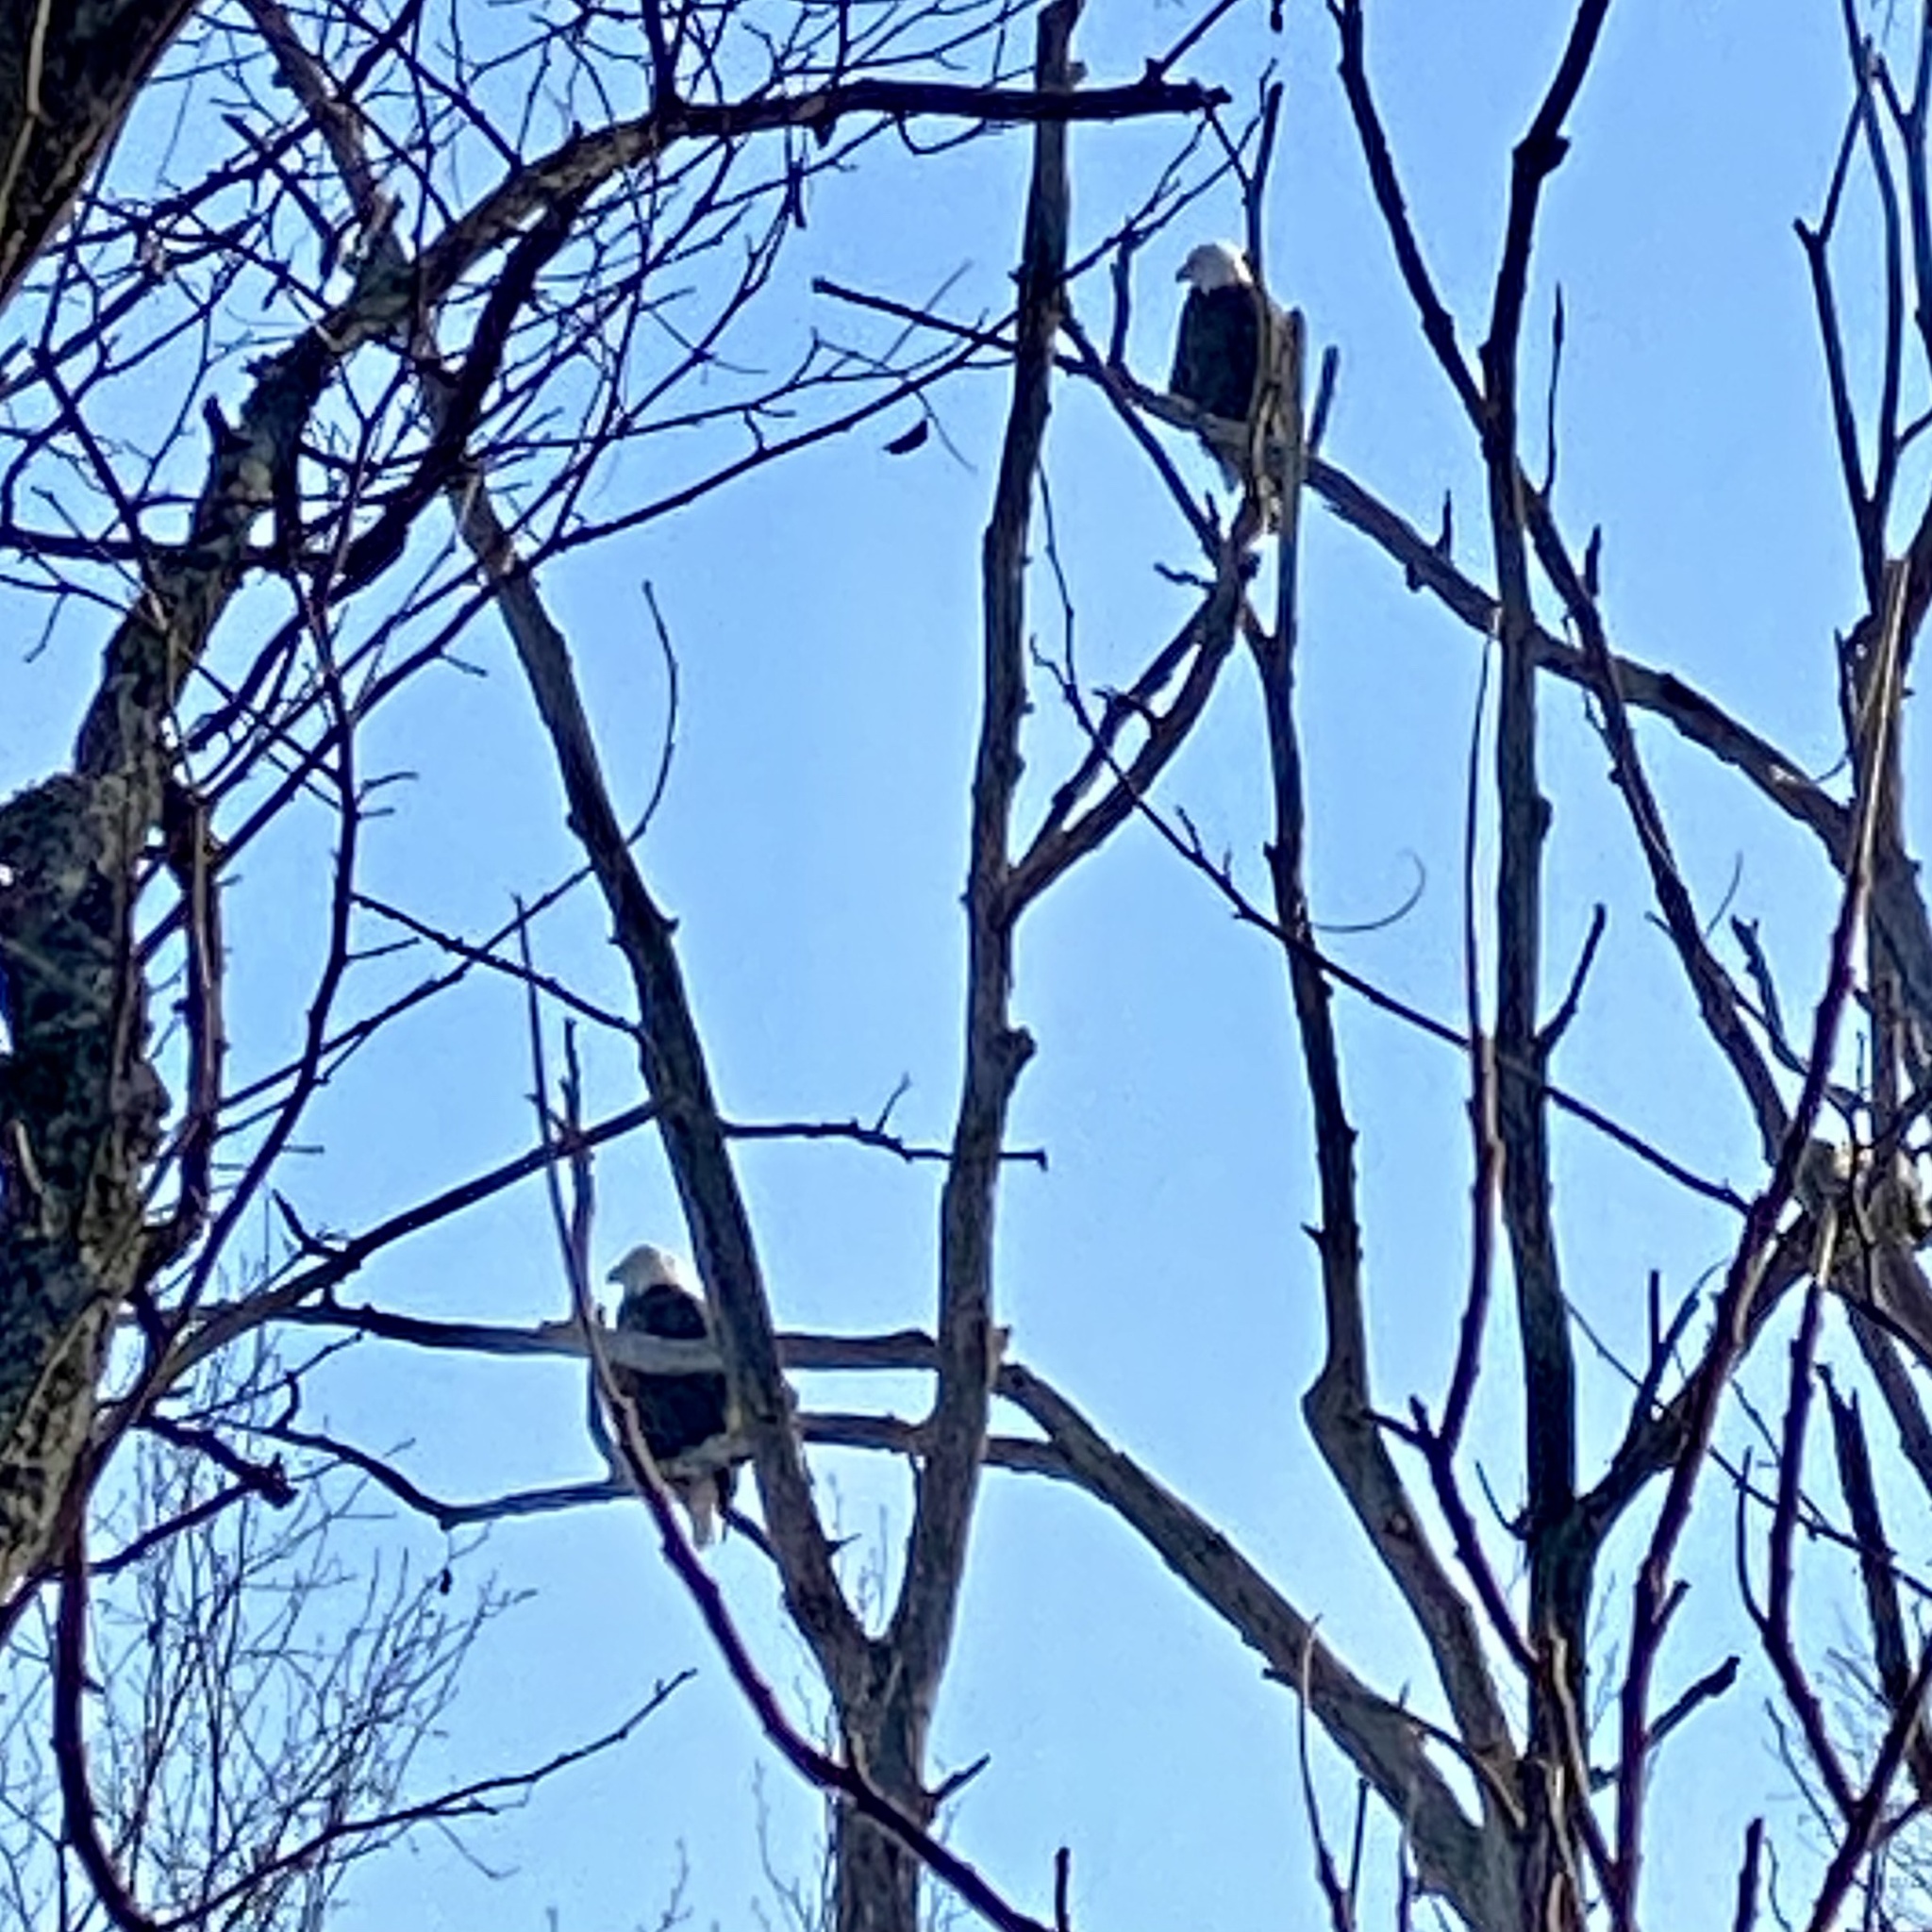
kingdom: Animalia
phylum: Chordata
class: Aves
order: Accipitriformes
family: Accipitridae
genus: Haliaeetus
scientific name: Haliaeetus leucocephalus
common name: Bald eagle
